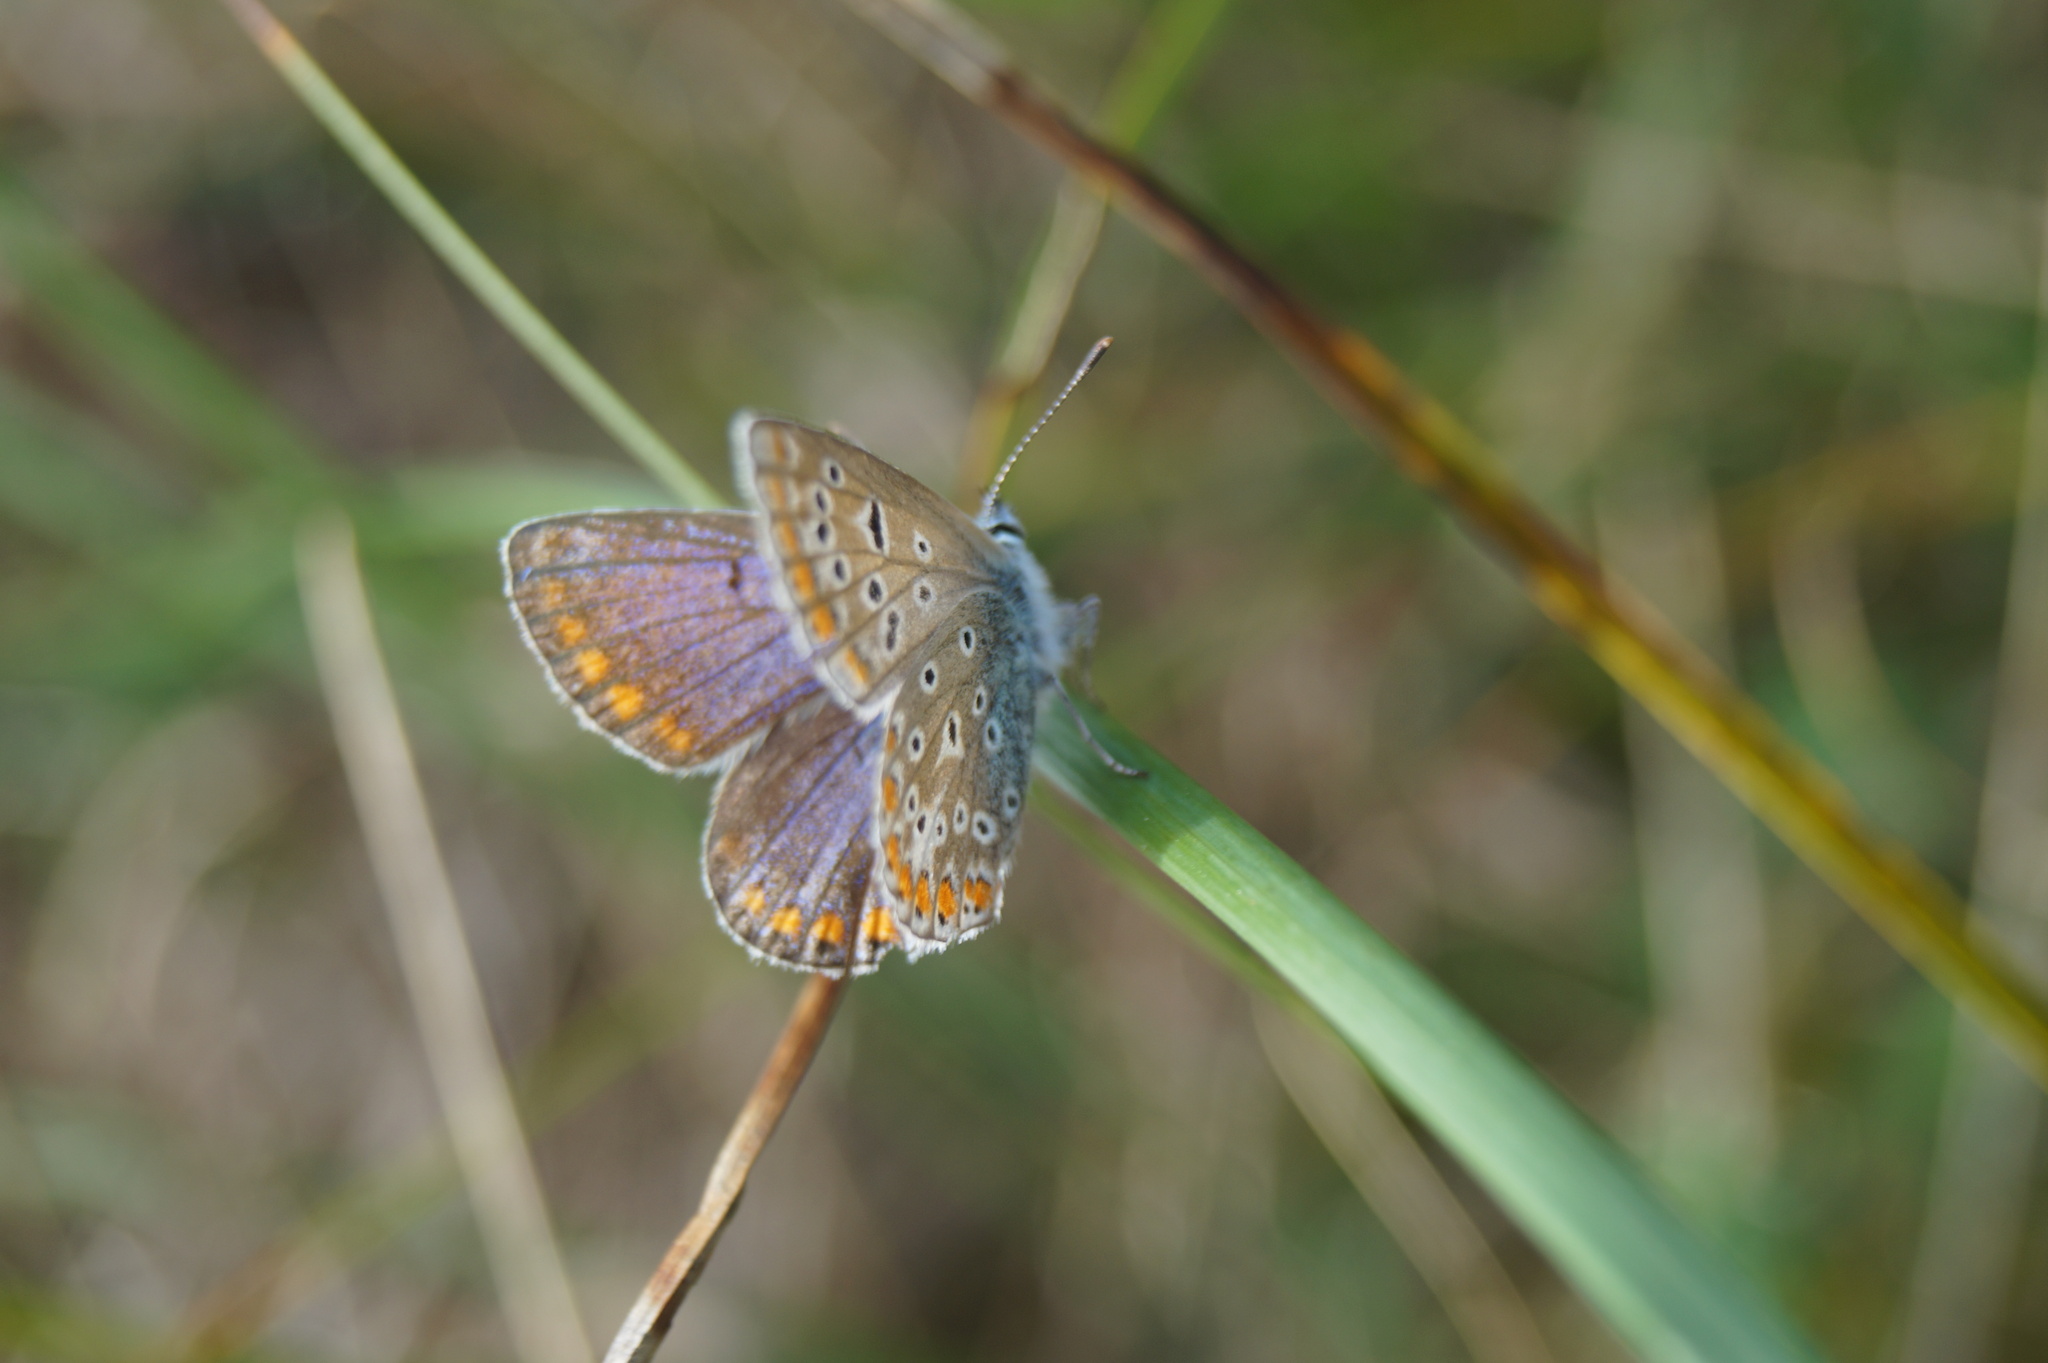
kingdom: Animalia
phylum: Arthropoda
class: Insecta
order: Lepidoptera
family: Lycaenidae
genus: Polyommatus
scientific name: Polyommatus icarus
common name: Common blue
